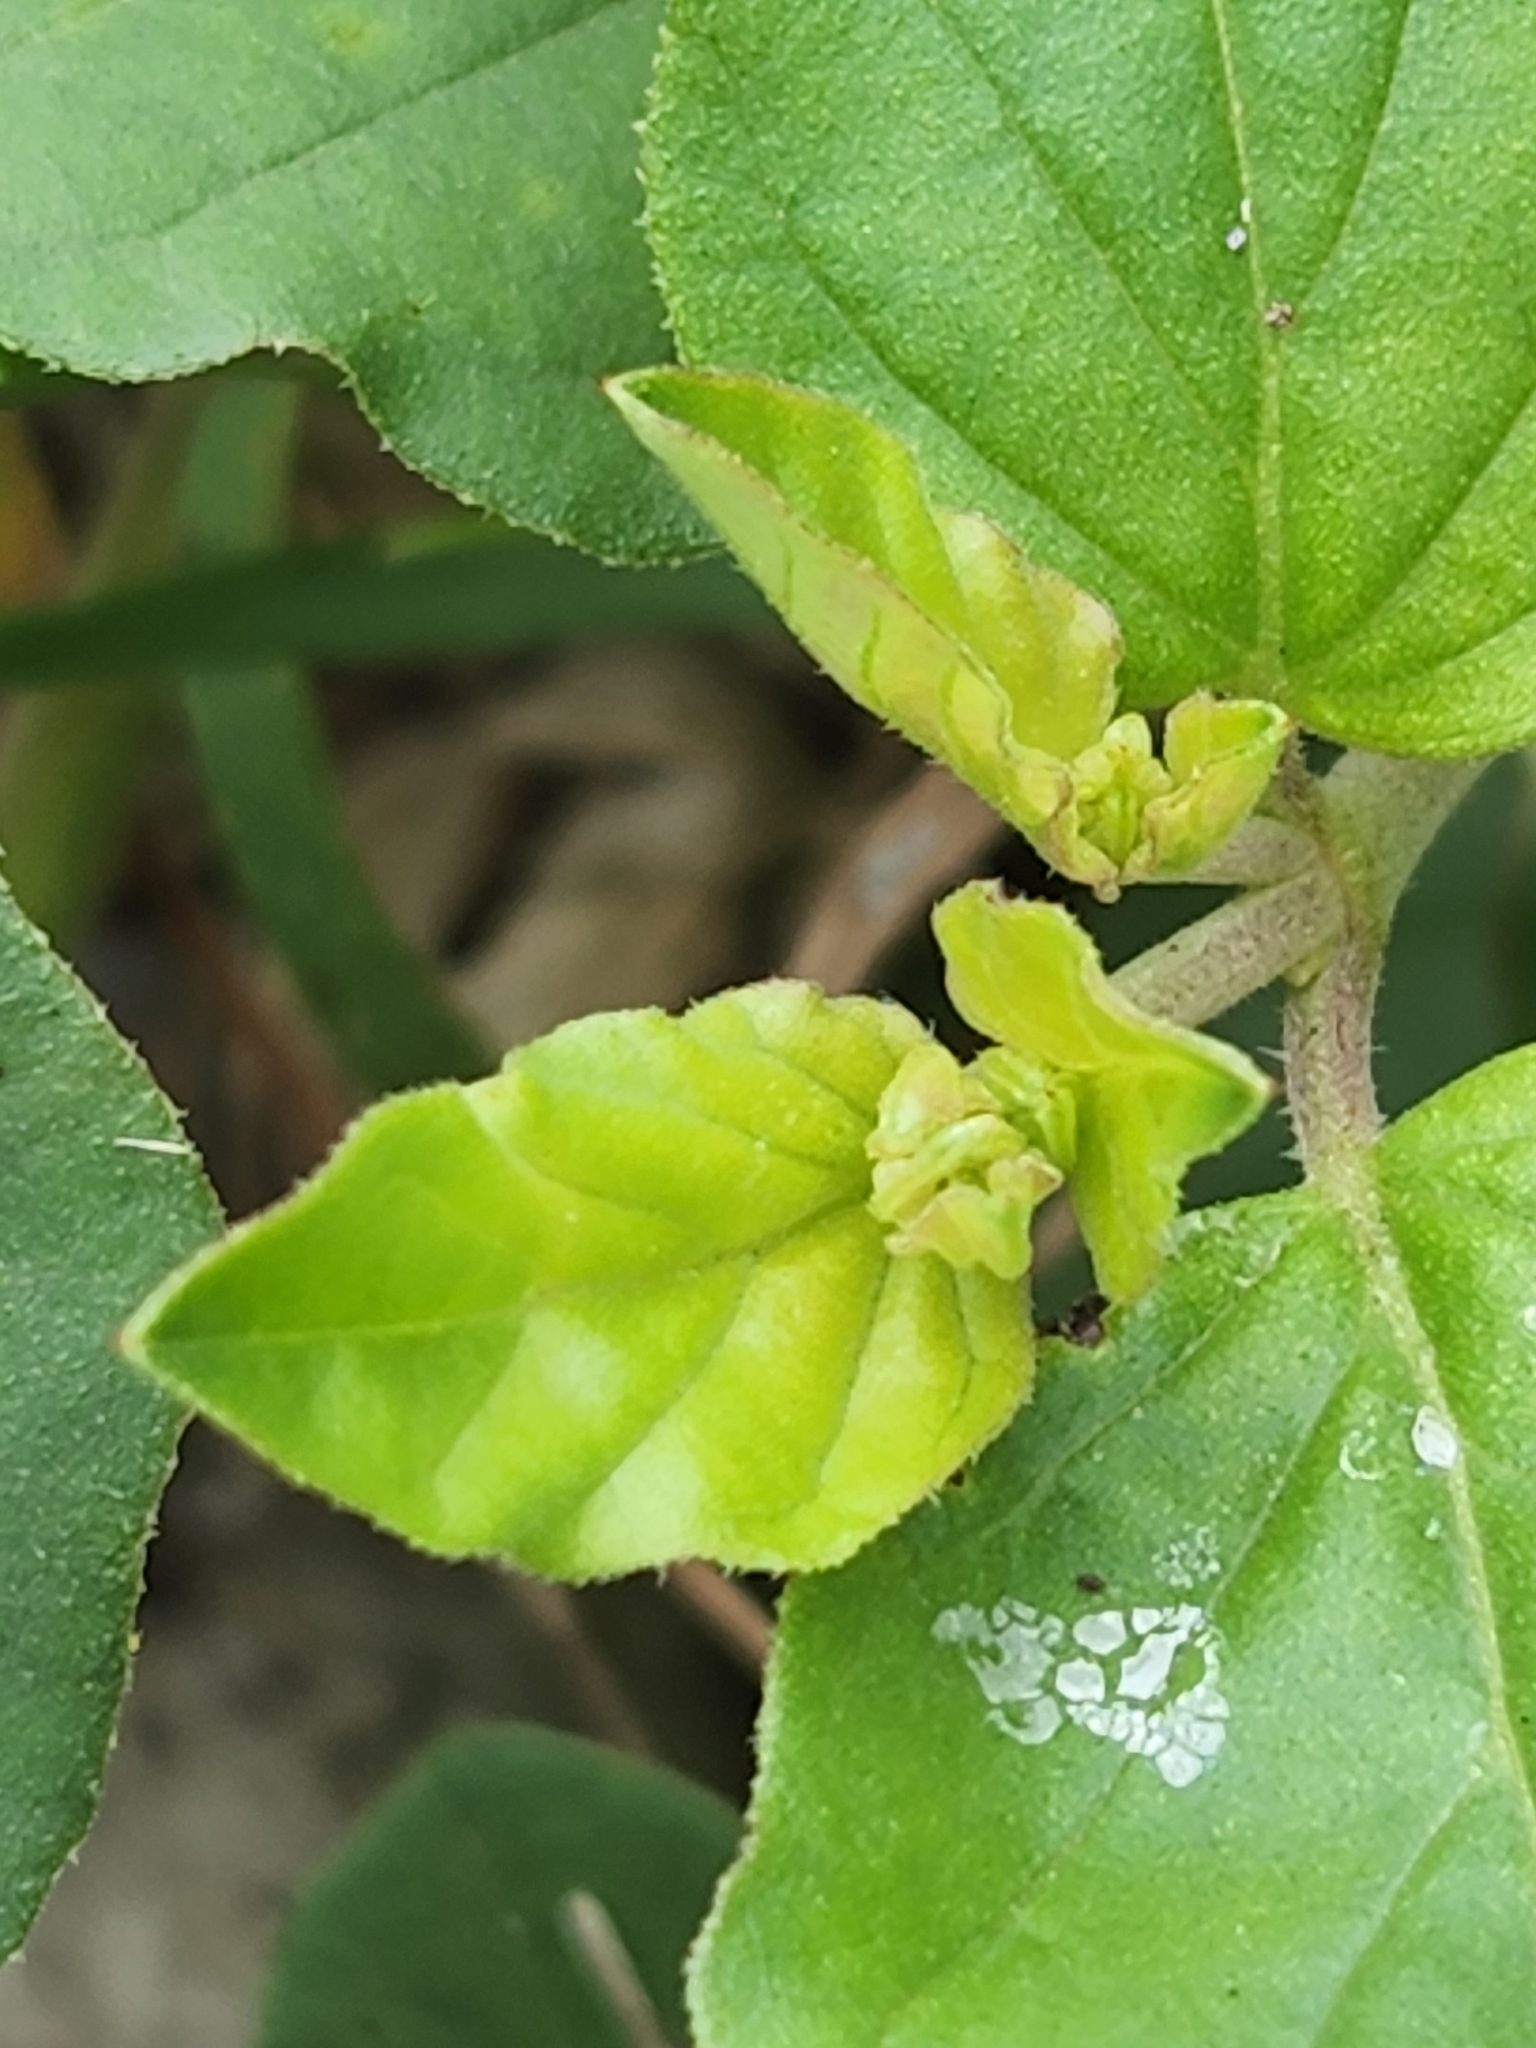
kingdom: Plantae
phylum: Tracheophyta
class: Magnoliopsida
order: Caryophyllales
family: Nyctaginaceae
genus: Boerhavia
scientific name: Boerhavia coccinea
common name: Scarlet spiderling
